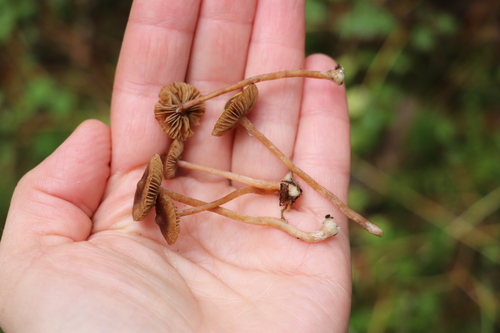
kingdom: Fungi
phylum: Basidiomycota
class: Agaricomycetes
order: Agaricales
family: Inocybaceae
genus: Inocybe
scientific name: Inocybe
